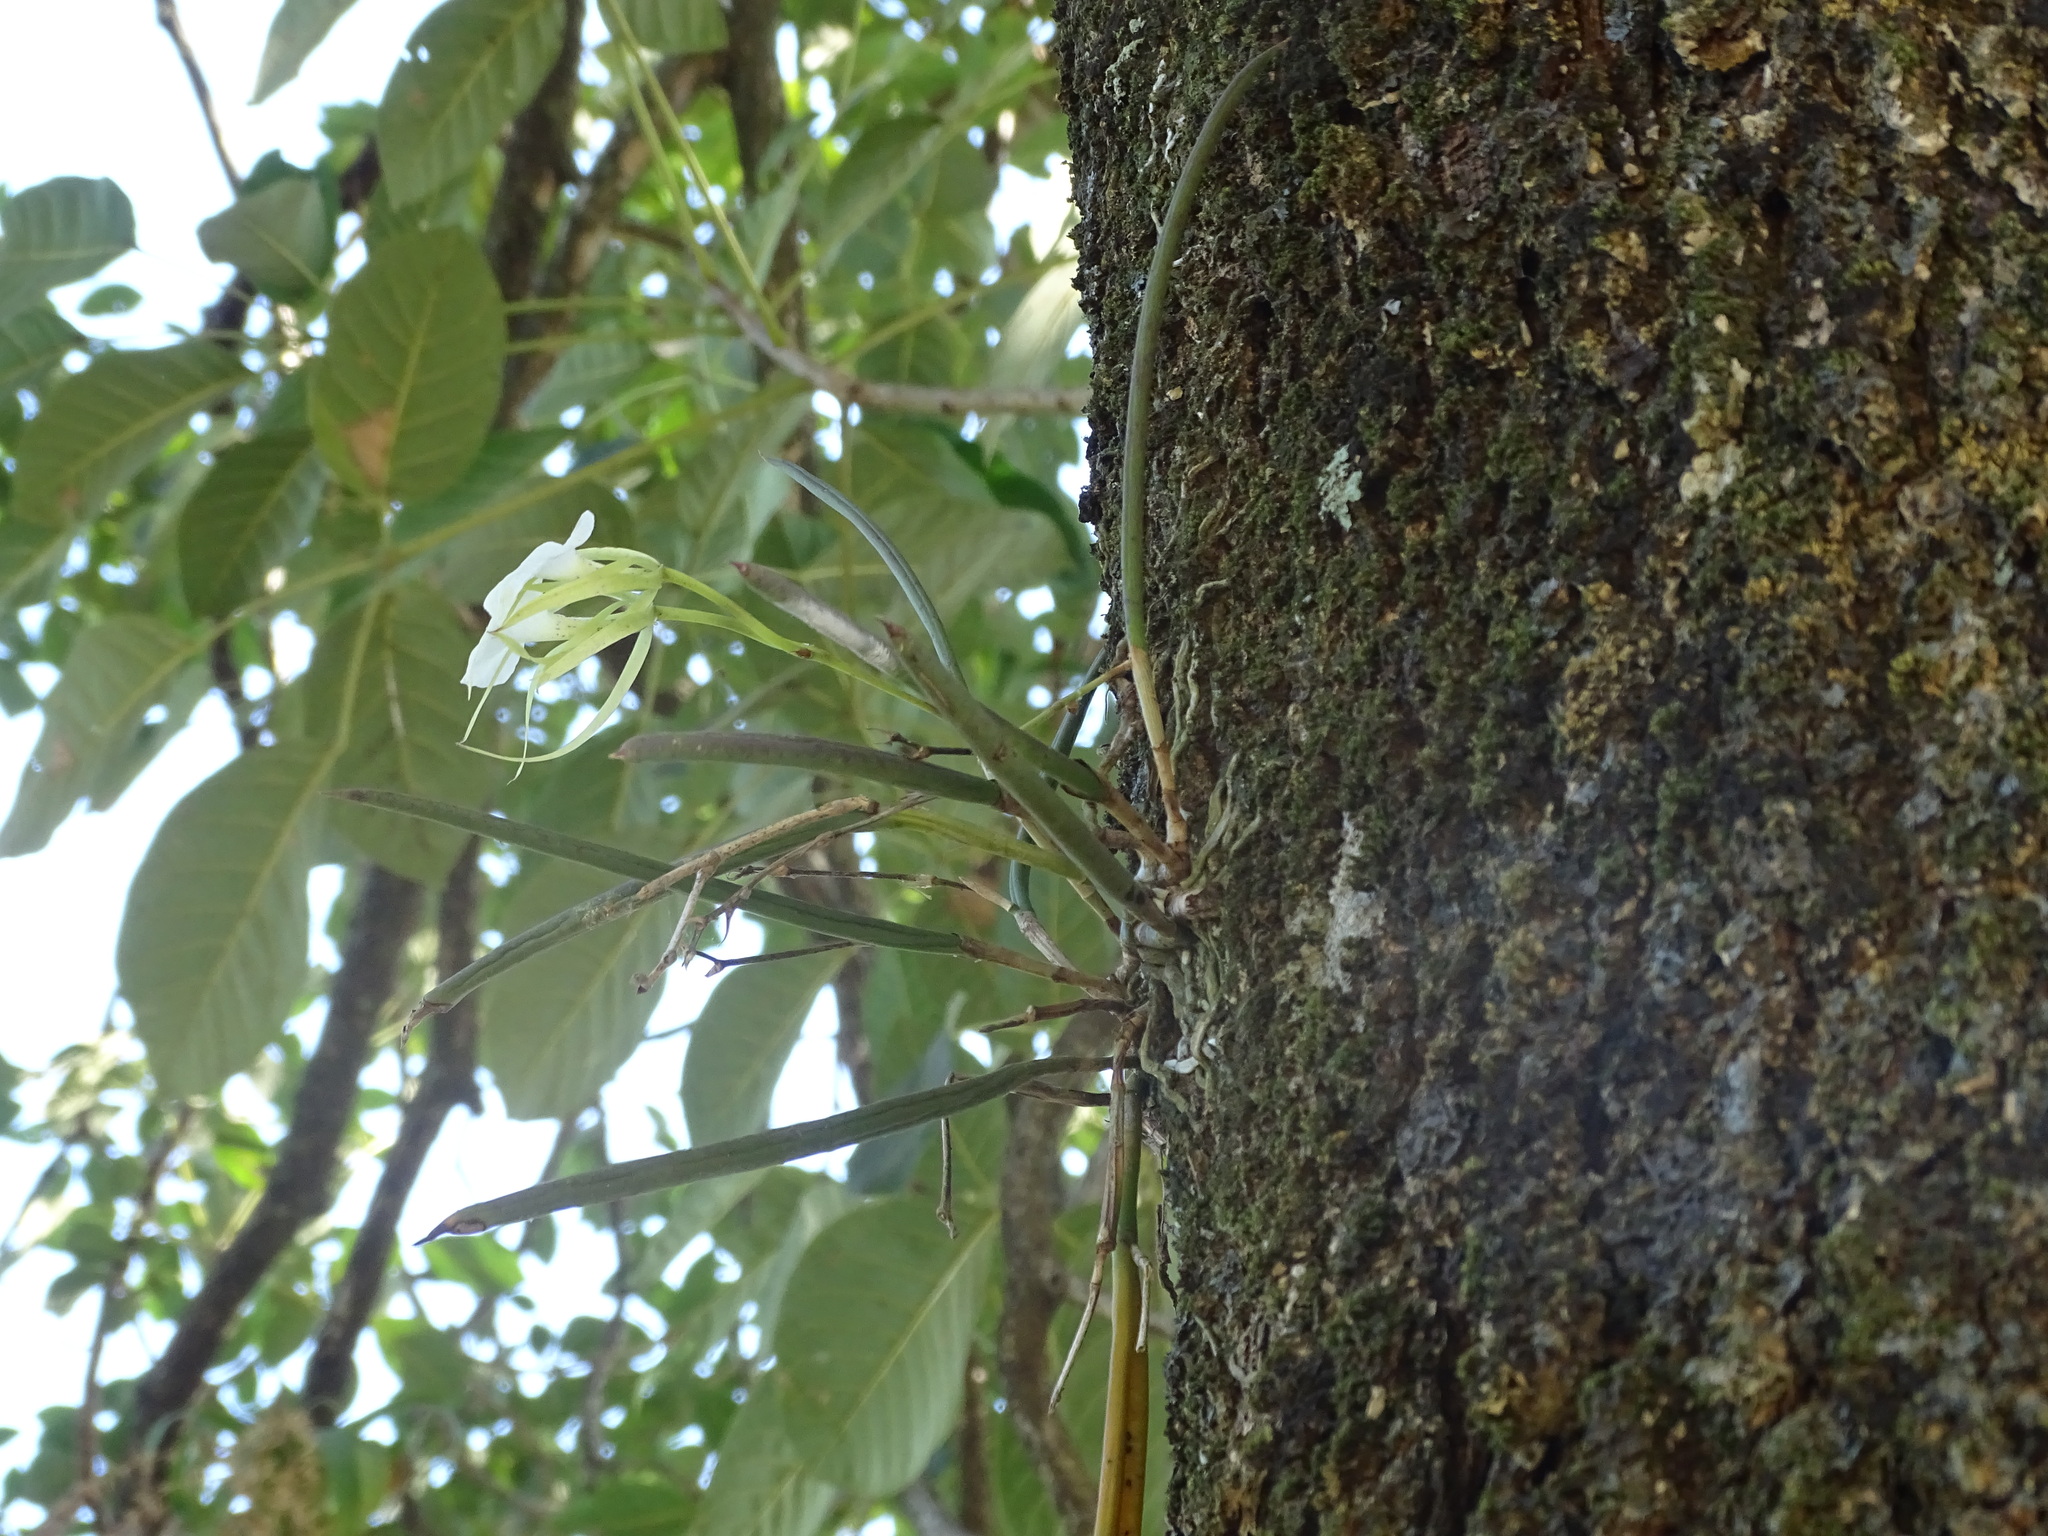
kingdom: Plantae
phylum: Tracheophyta
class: Liliopsida
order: Asparagales
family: Orchidaceae
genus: Brassavola
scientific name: Brassavola nodosa
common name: Lady of the night
